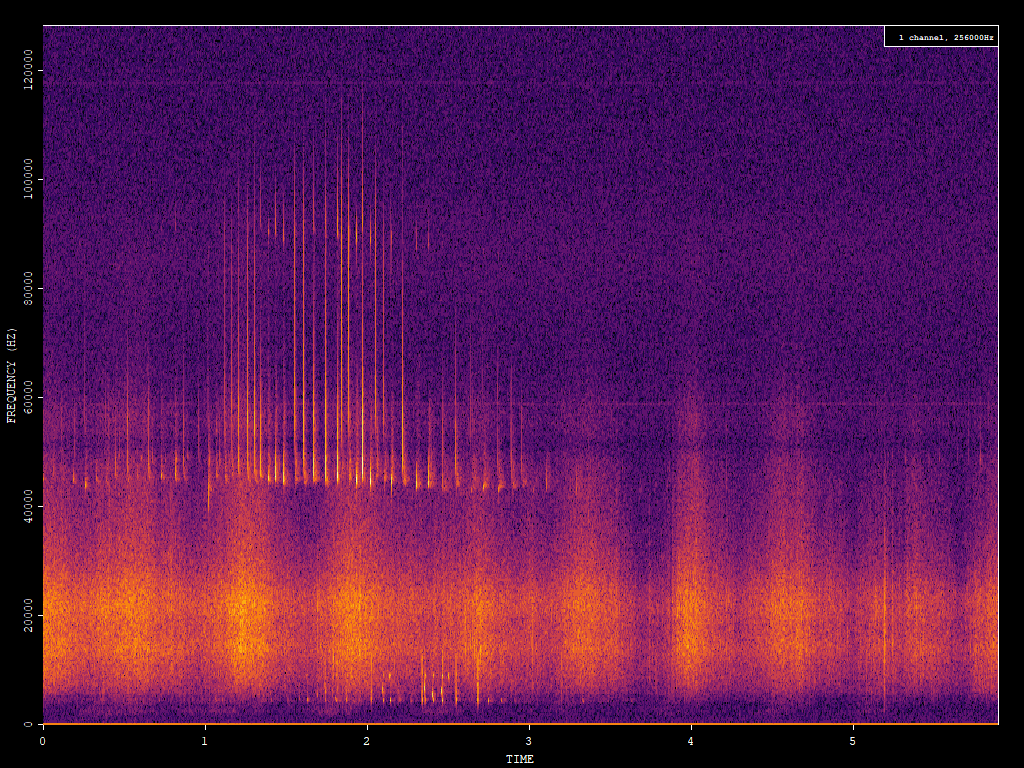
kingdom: Animalia
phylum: Chordata
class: Mammalia
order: Chiroptera
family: Vespertilionidae
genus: Pipistrellus
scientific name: Pipistrellus pipistrellus
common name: Common pipistrelle
